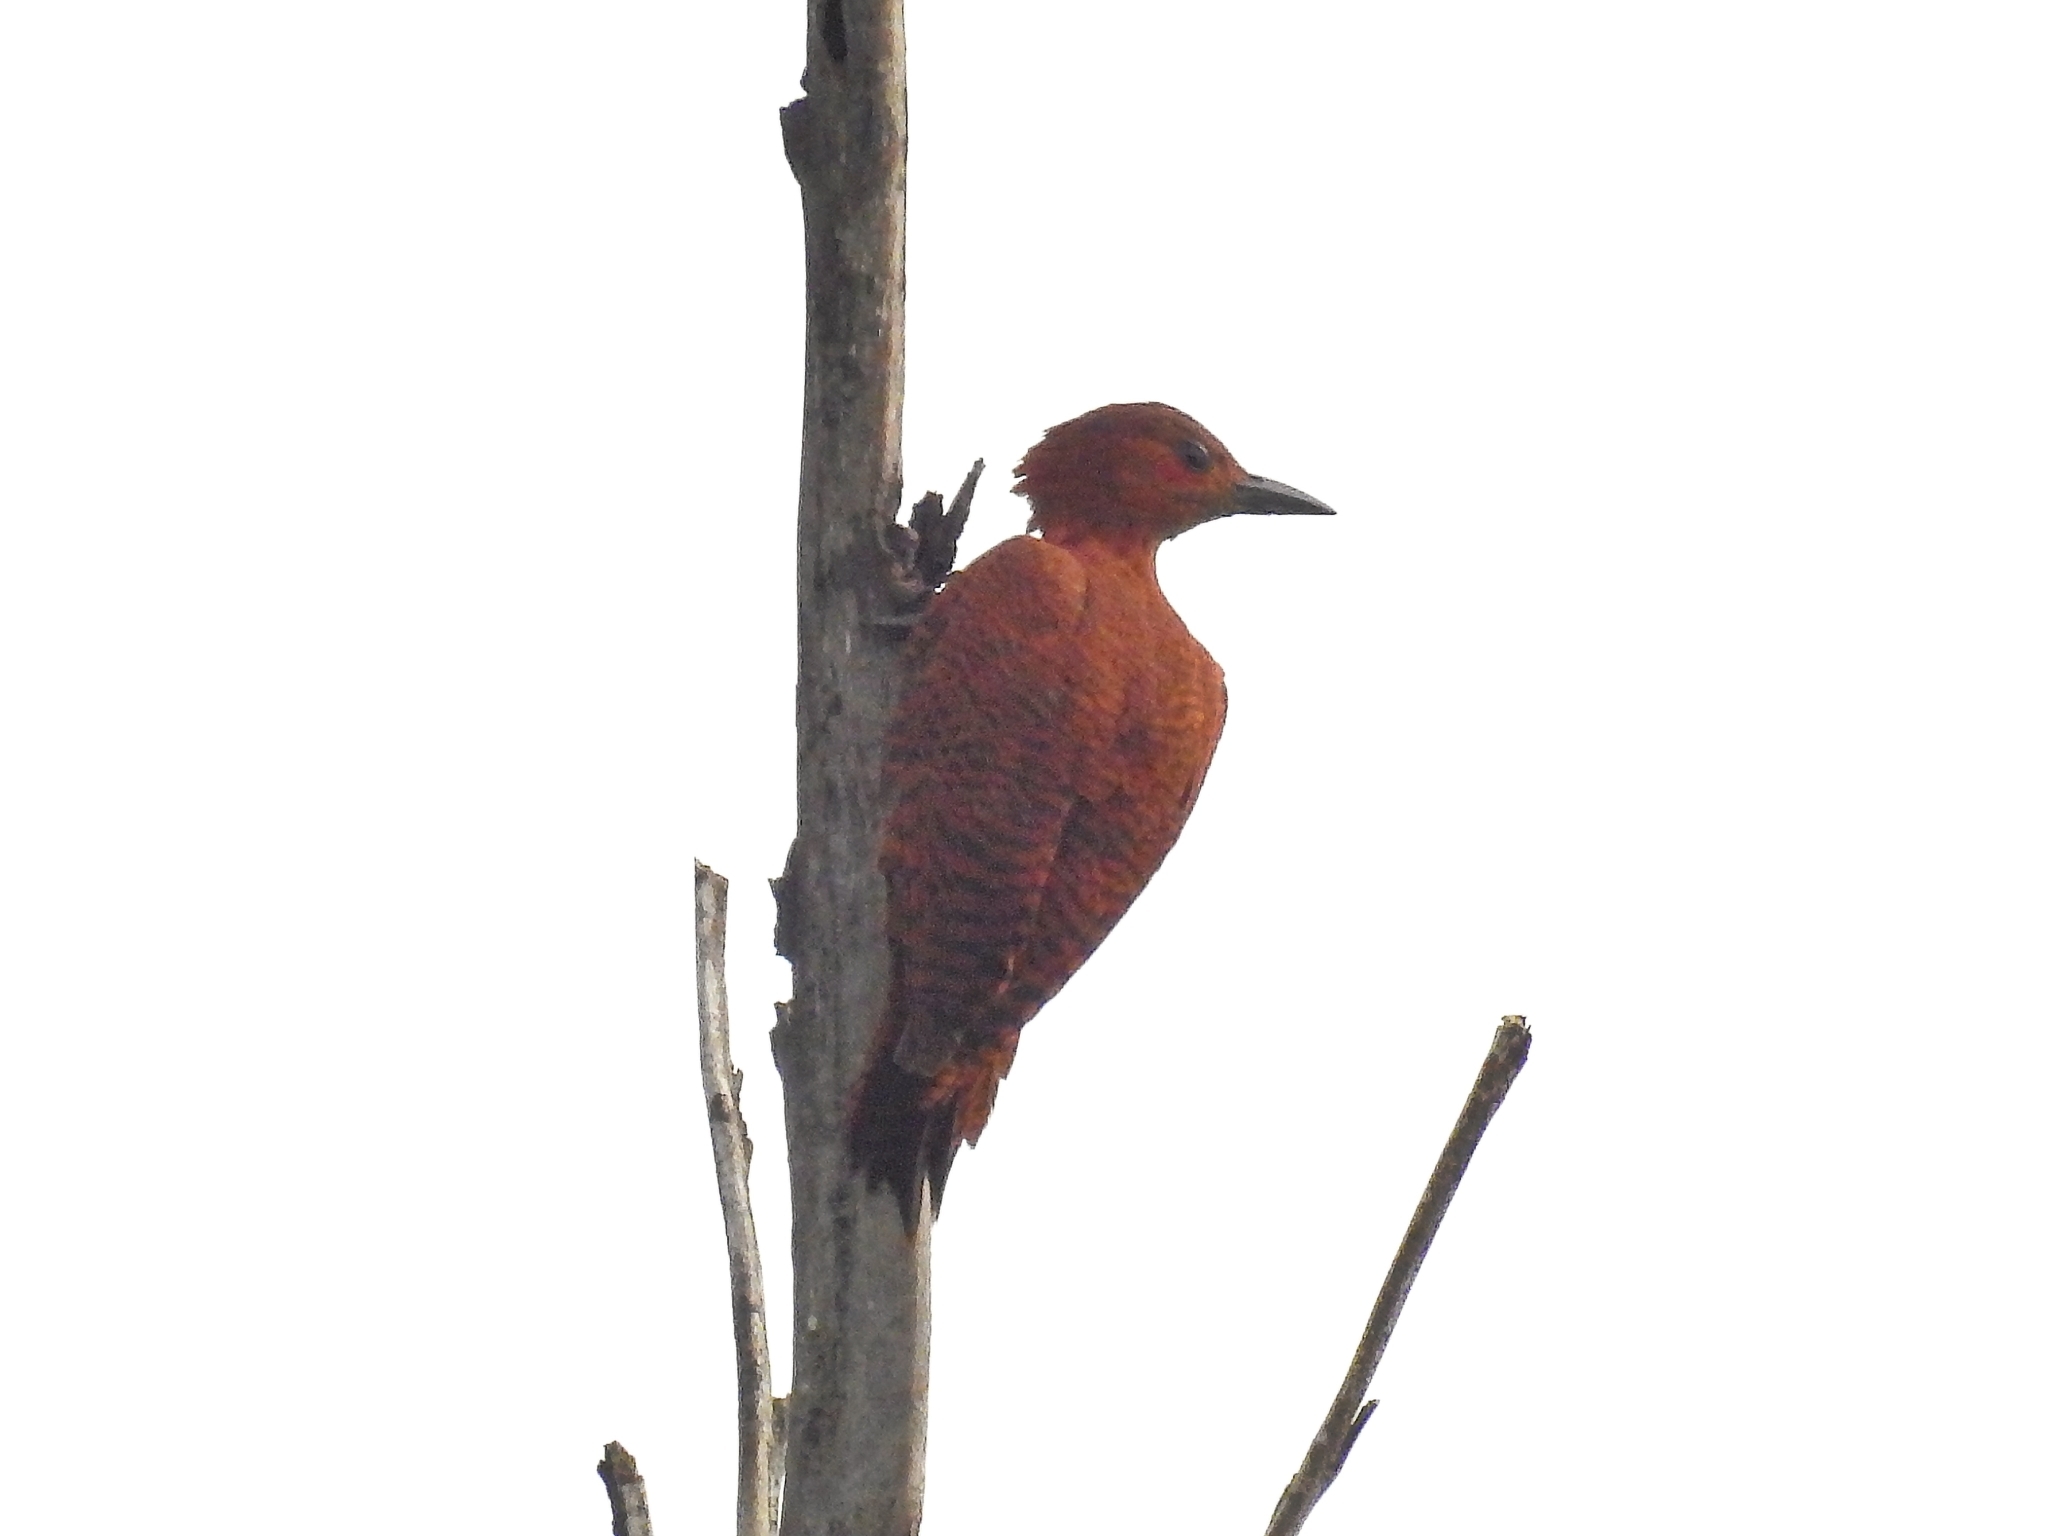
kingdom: Animalia
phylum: Chordata
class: Aves
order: Piciformes
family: Picidae
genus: Micropternus
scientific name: Micropternus brachyurus
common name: Rufous woodpecker
